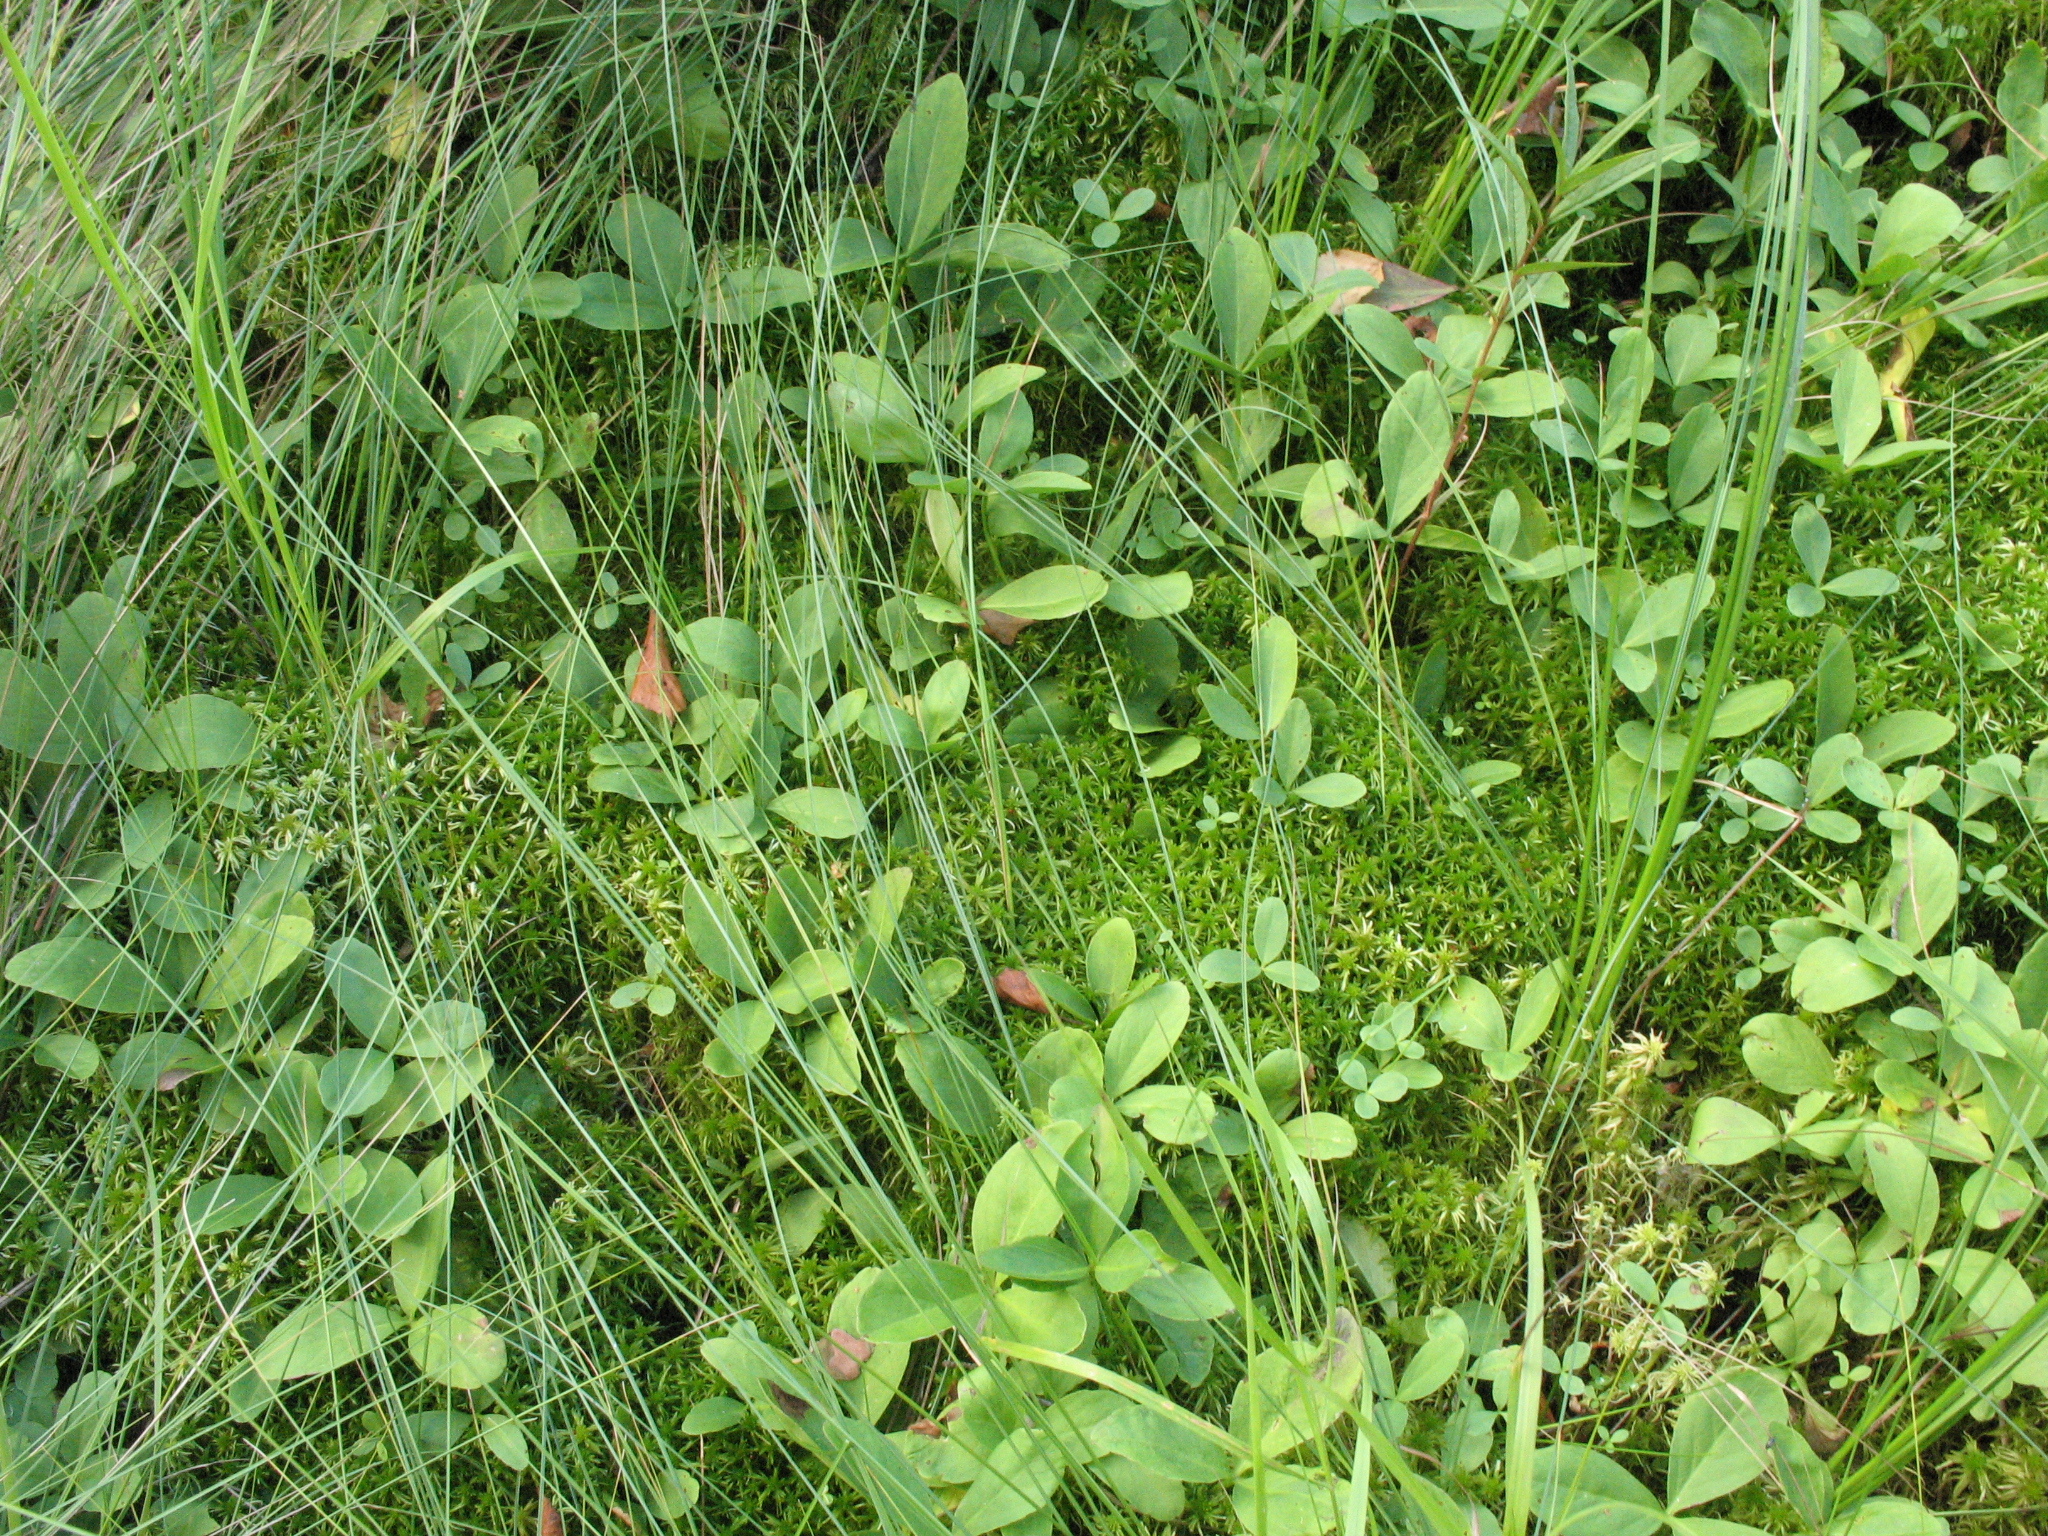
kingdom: Plantae
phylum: Tracheophyta
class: Magnoliopsida
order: Asterales
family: Menyanthaceae
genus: Menyanthes
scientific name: Menyanthes trifoliata
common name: Bogbean
